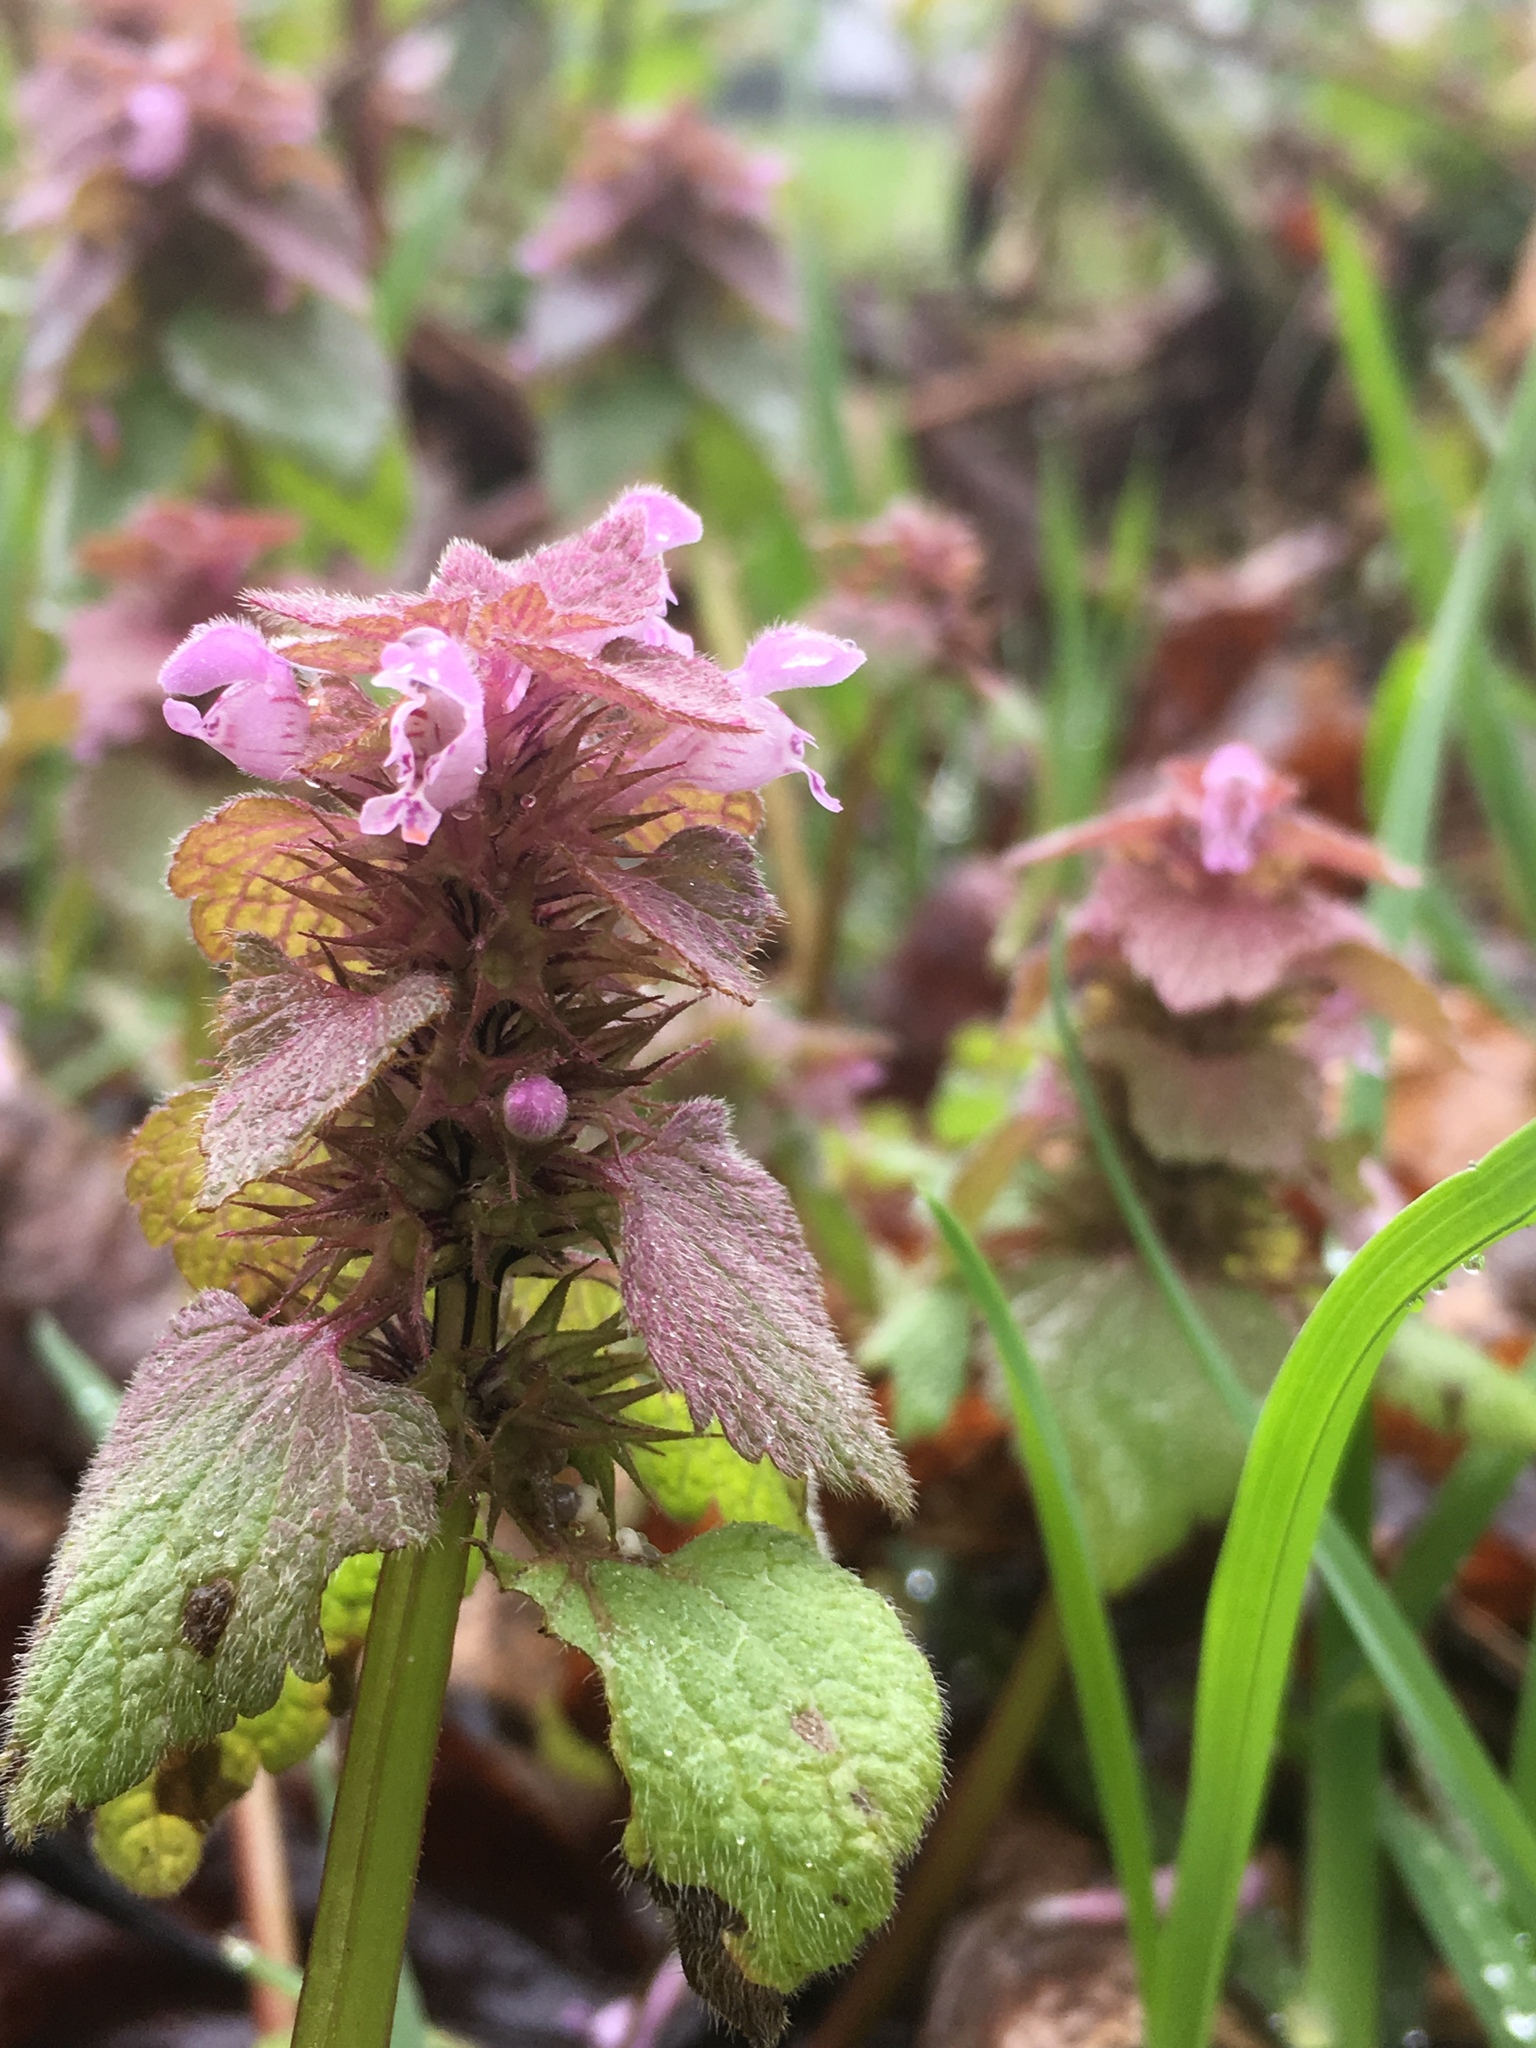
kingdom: Plantae
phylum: Tracheophyta
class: Magnoliopsida
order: Lamiales
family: Lamiaceae
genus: Lamium
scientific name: Lamium purpureum
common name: Red dead-nettle
